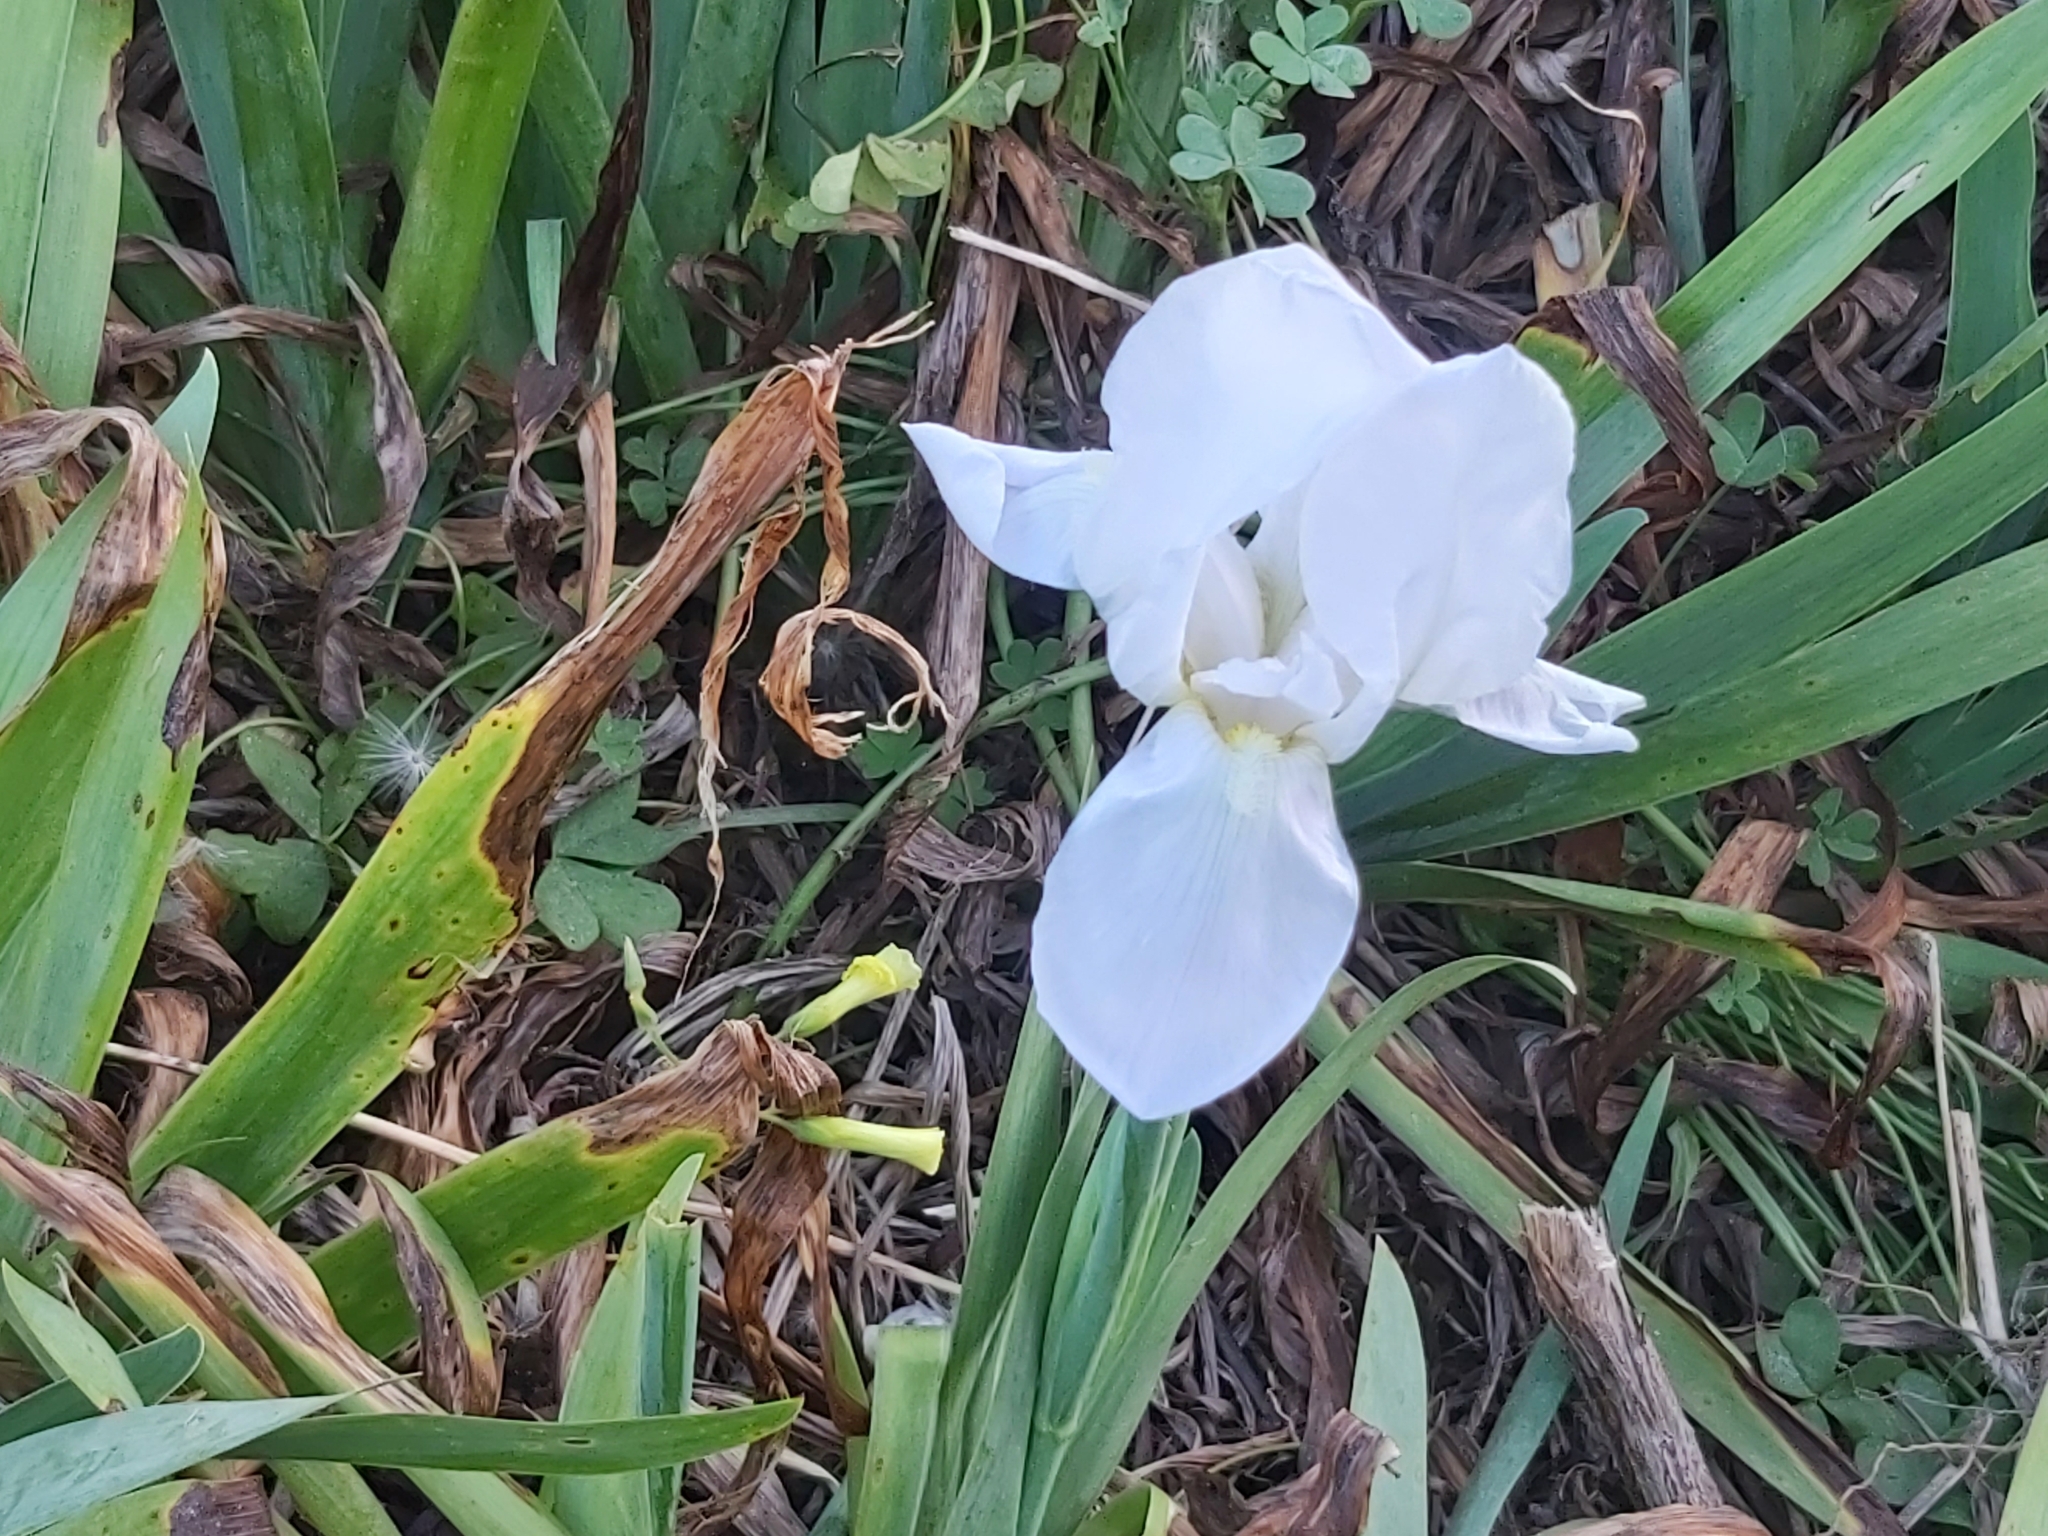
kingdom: Plantae
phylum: Tracheophyta
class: Liliopsida
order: Asparagales
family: Iridaceae
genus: Iris
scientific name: Iris florentina
